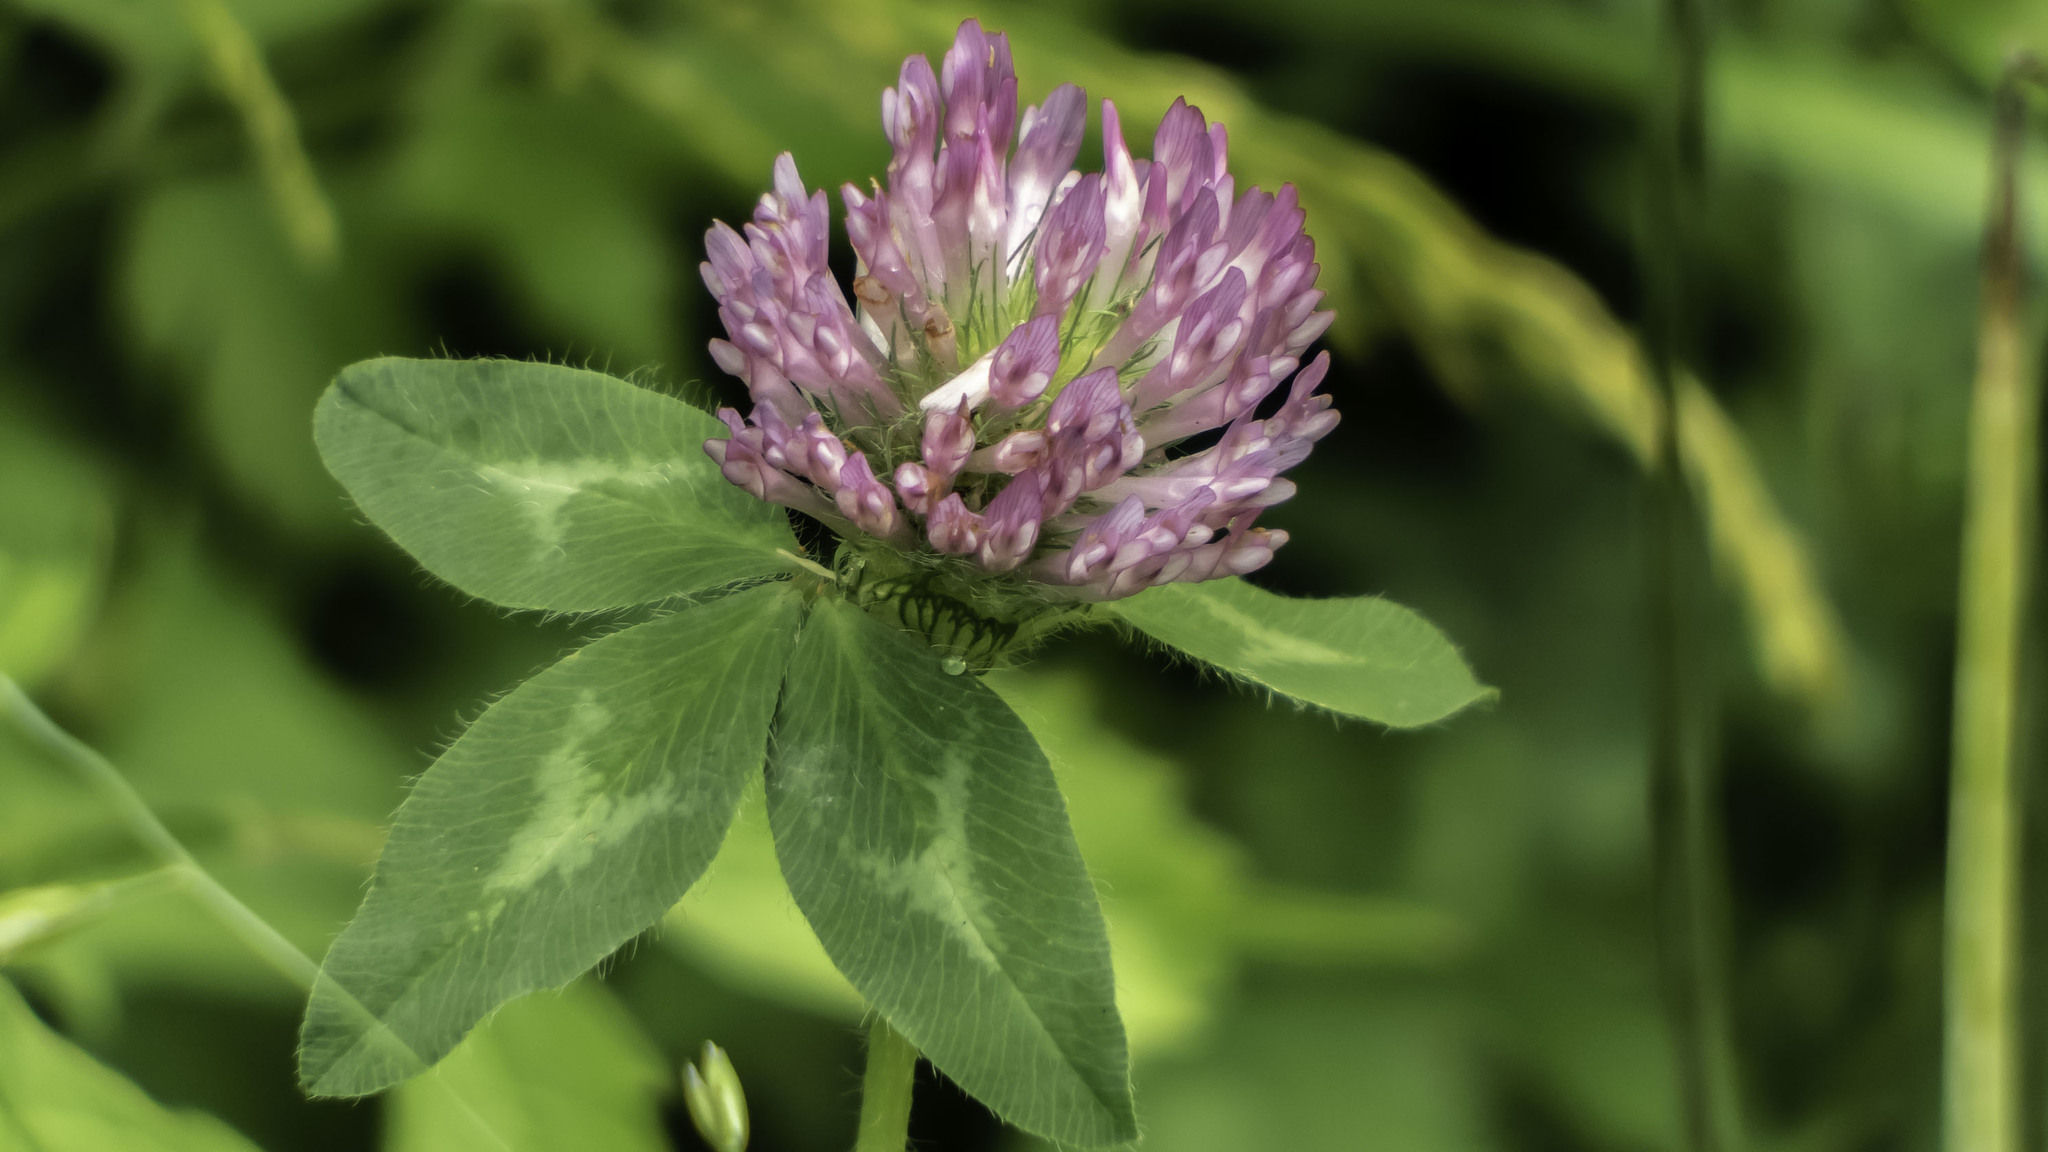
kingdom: Plantae
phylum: Tracheophyta
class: Magnoliopsida
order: Fabales
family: Fabaceae
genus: Trifolium
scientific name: Trifolium pratense
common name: Red clover
